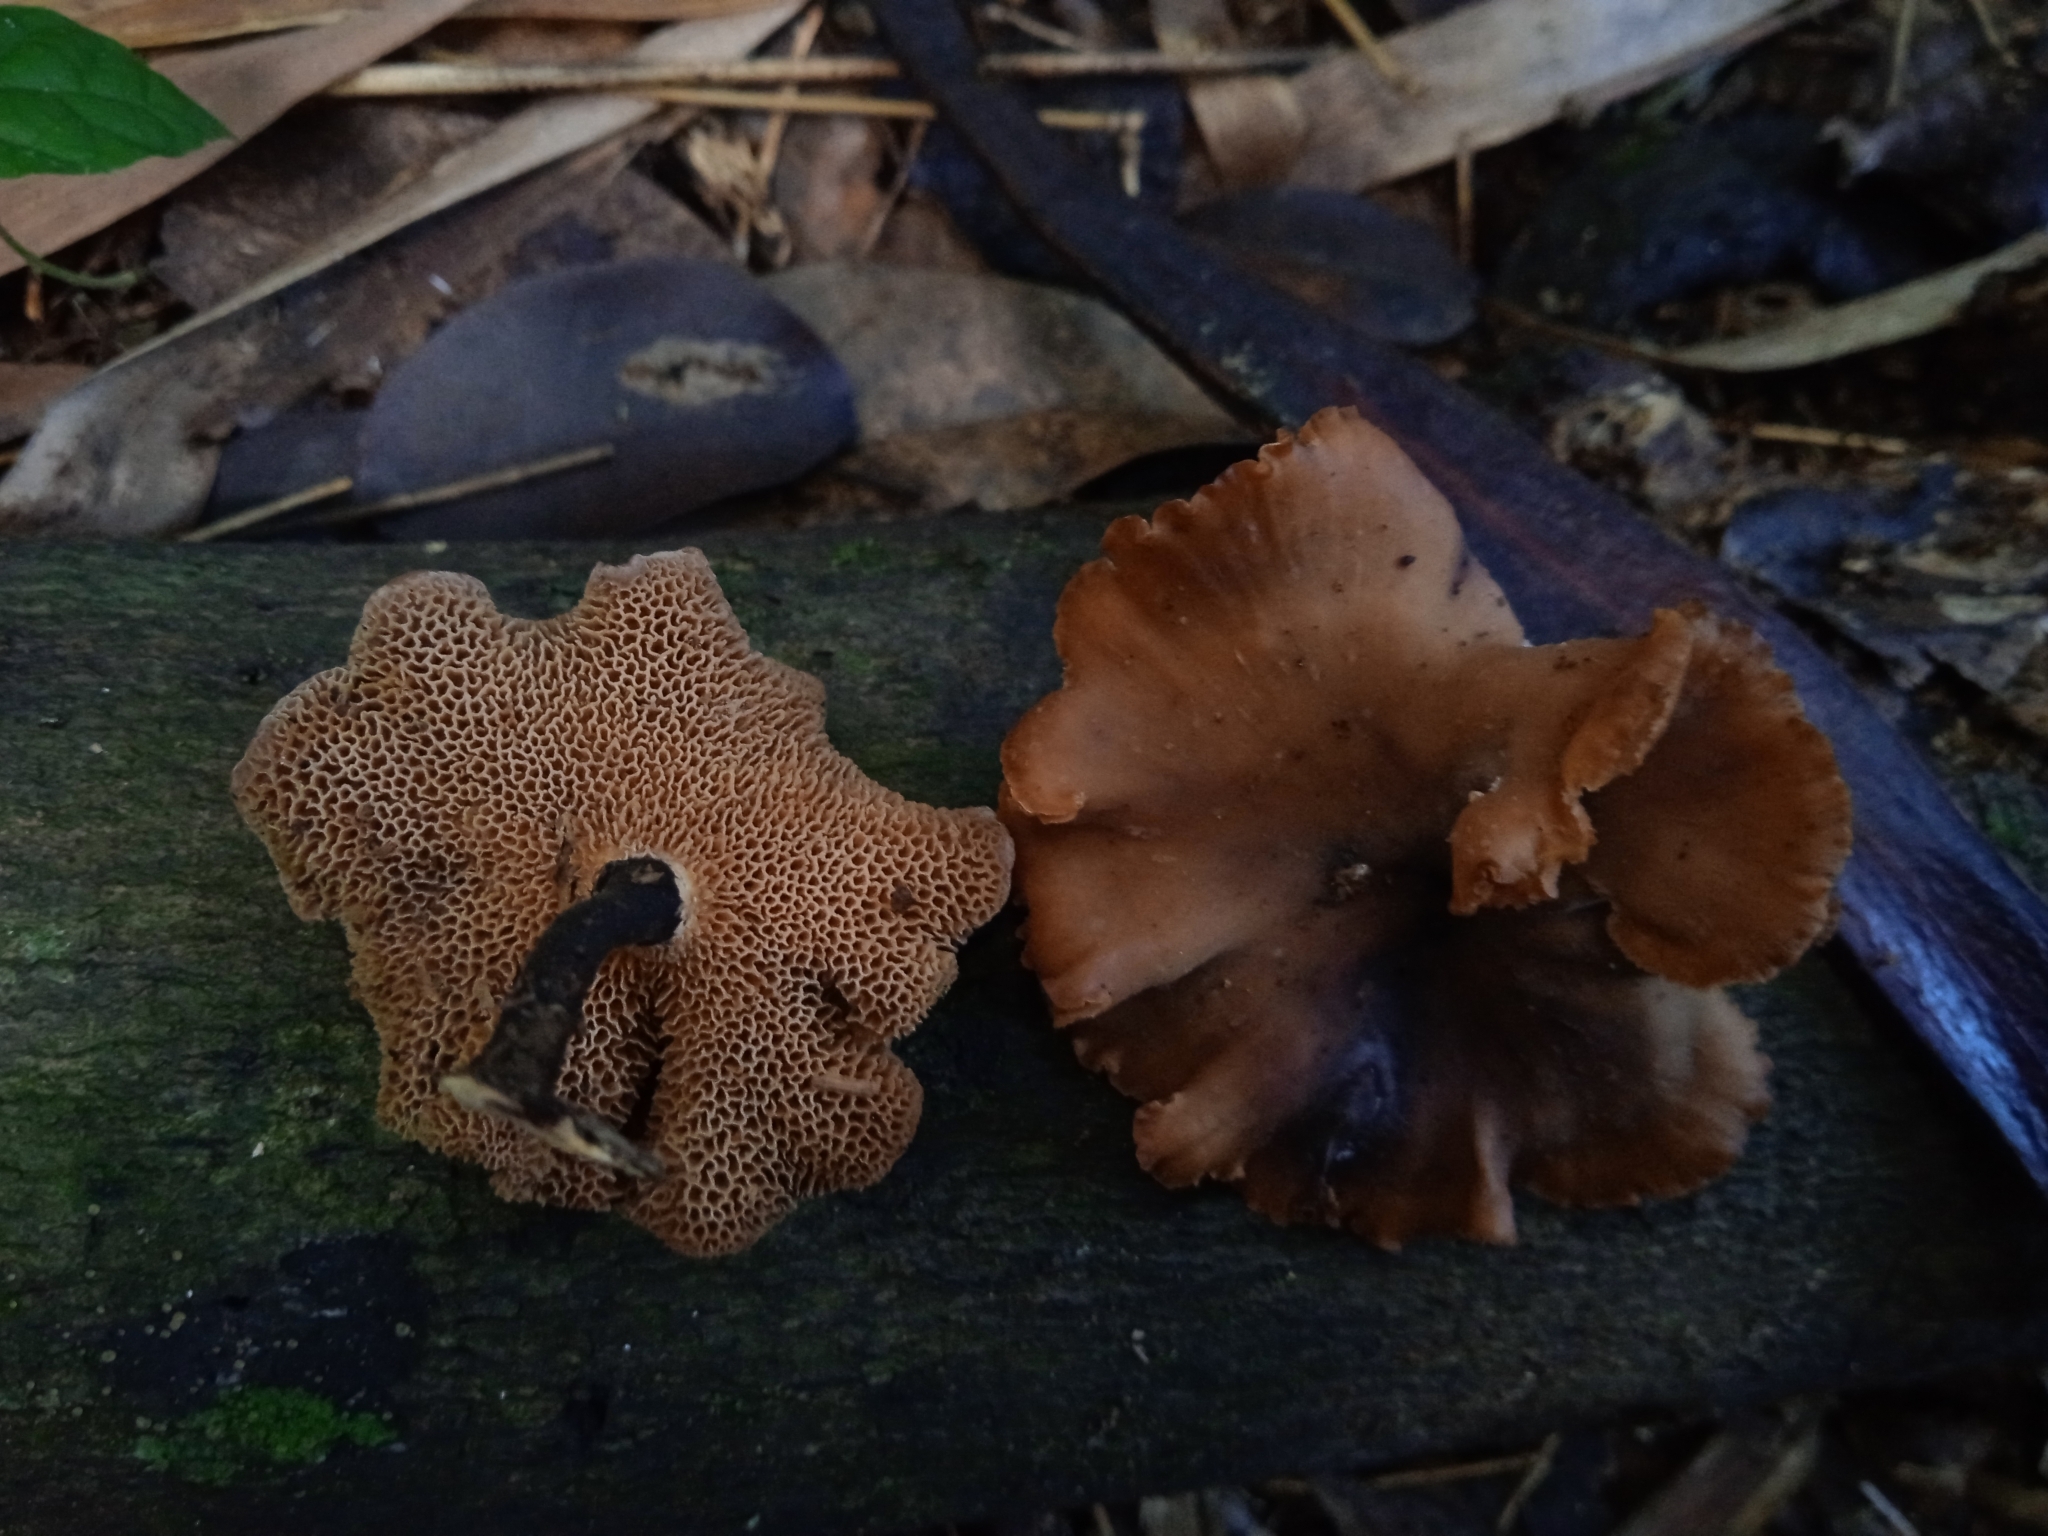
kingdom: Fungi
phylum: Basidiomycota
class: Agaricomycetes
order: Polyporales
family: Polyporaceae
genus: Polyporus
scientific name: Polyporus guianensis
